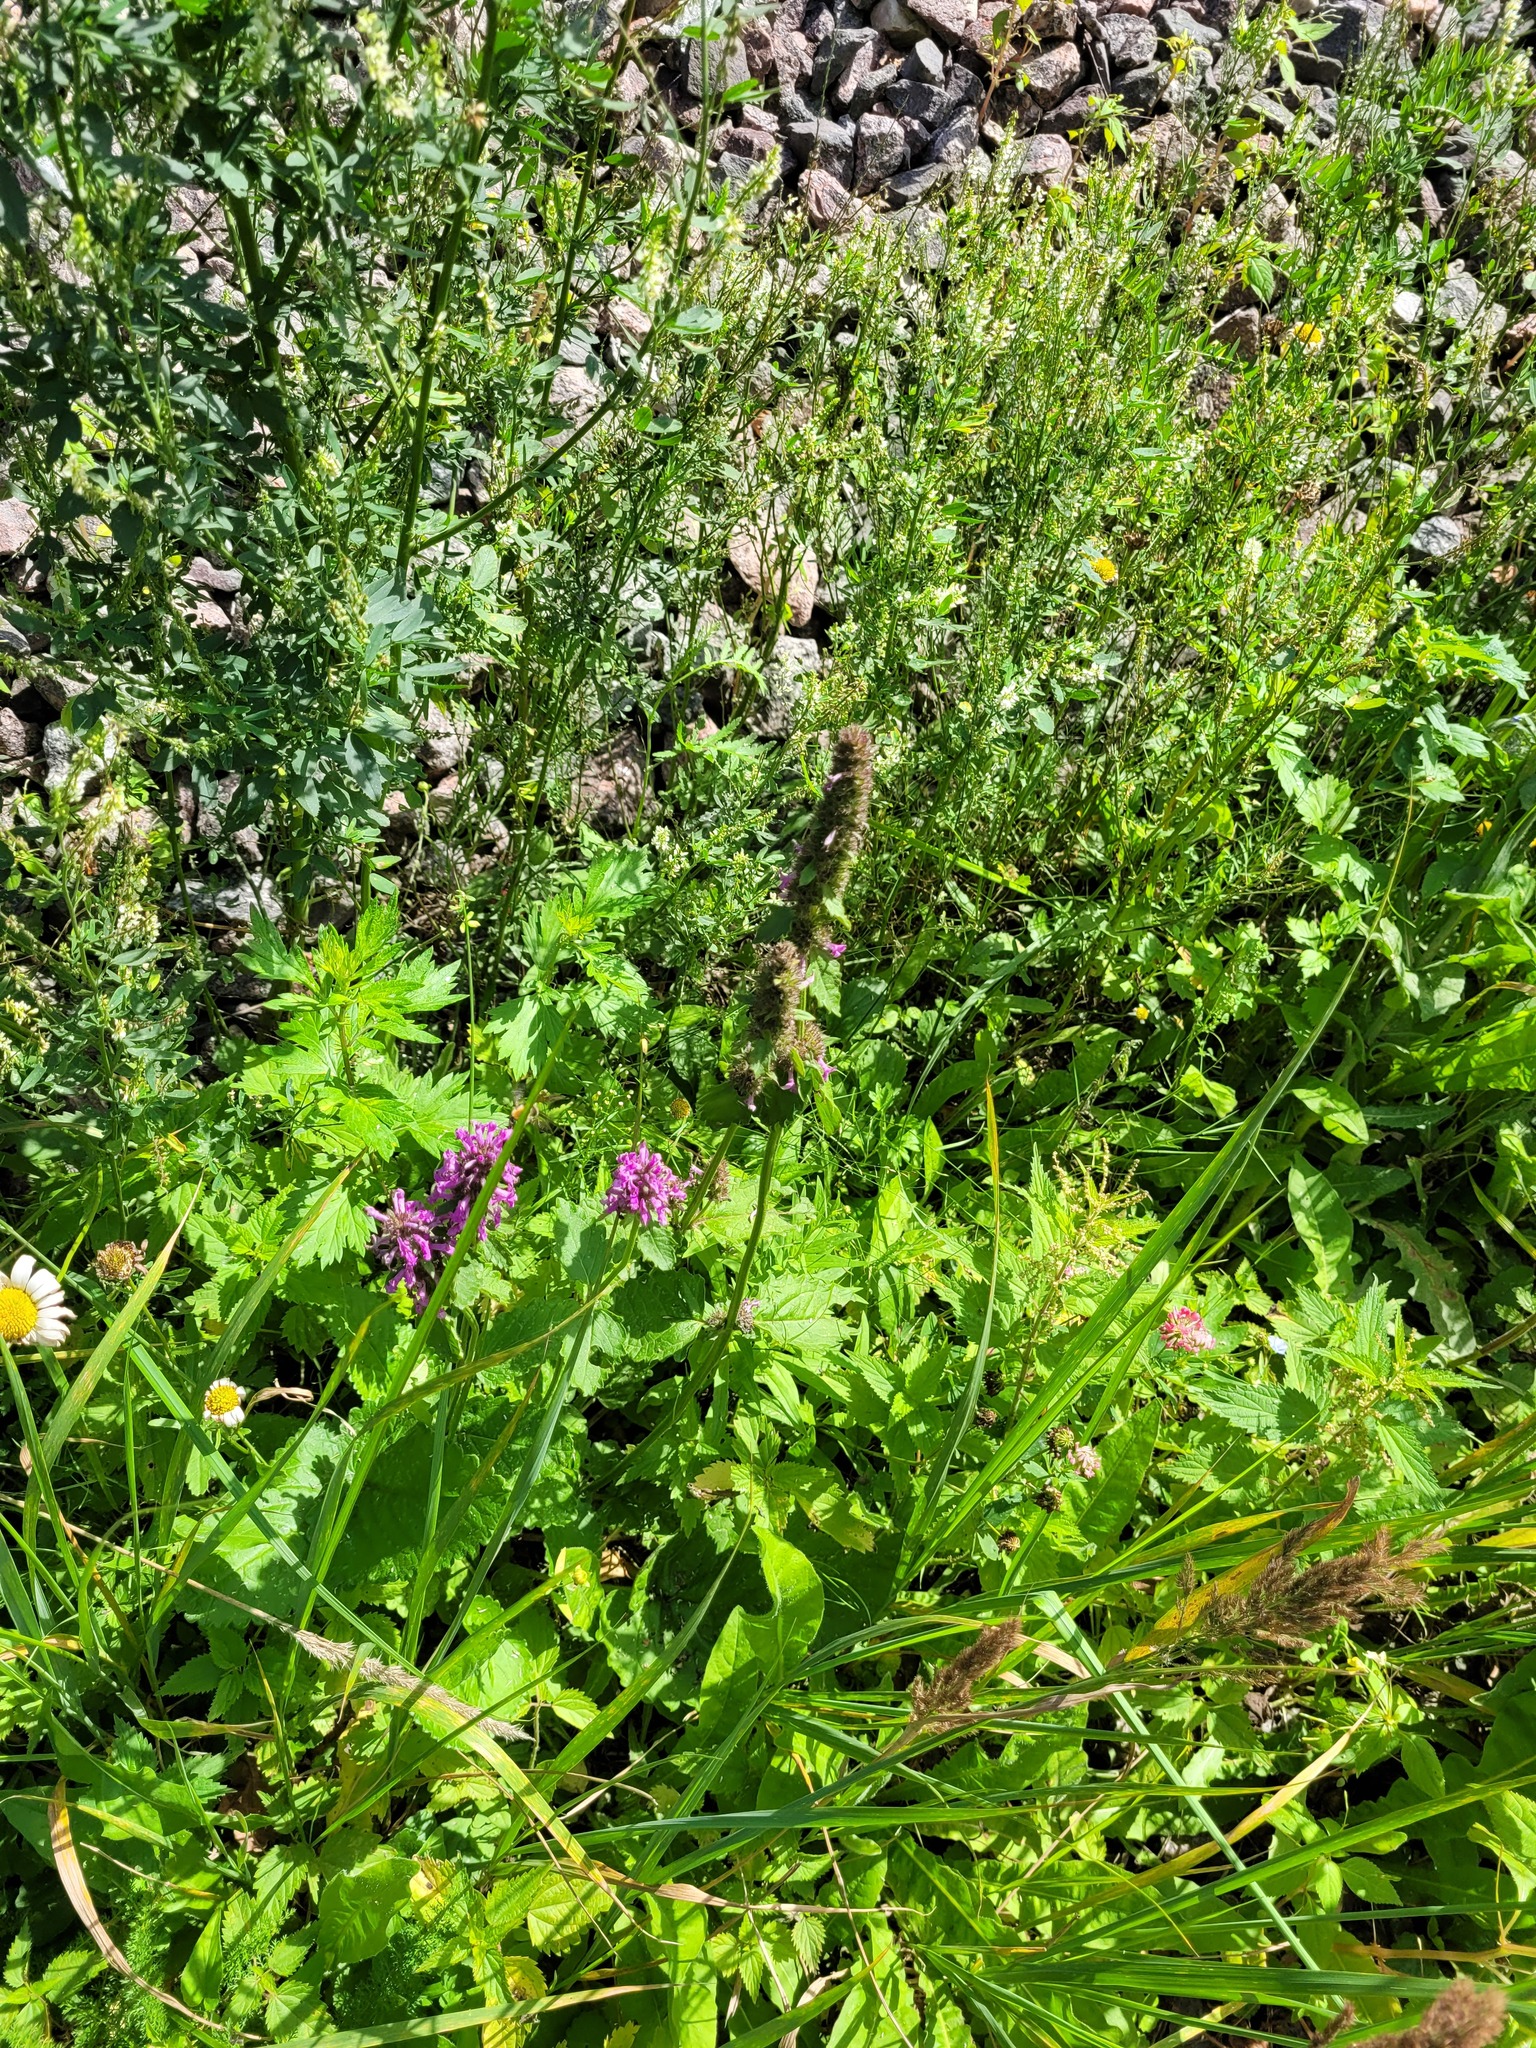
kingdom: Plantae
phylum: Tracheophyta
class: Magnoliopsida
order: Lamiales
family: Lamiaceae
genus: Betonica
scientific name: Betonica officinalis
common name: Bishop's-wort
